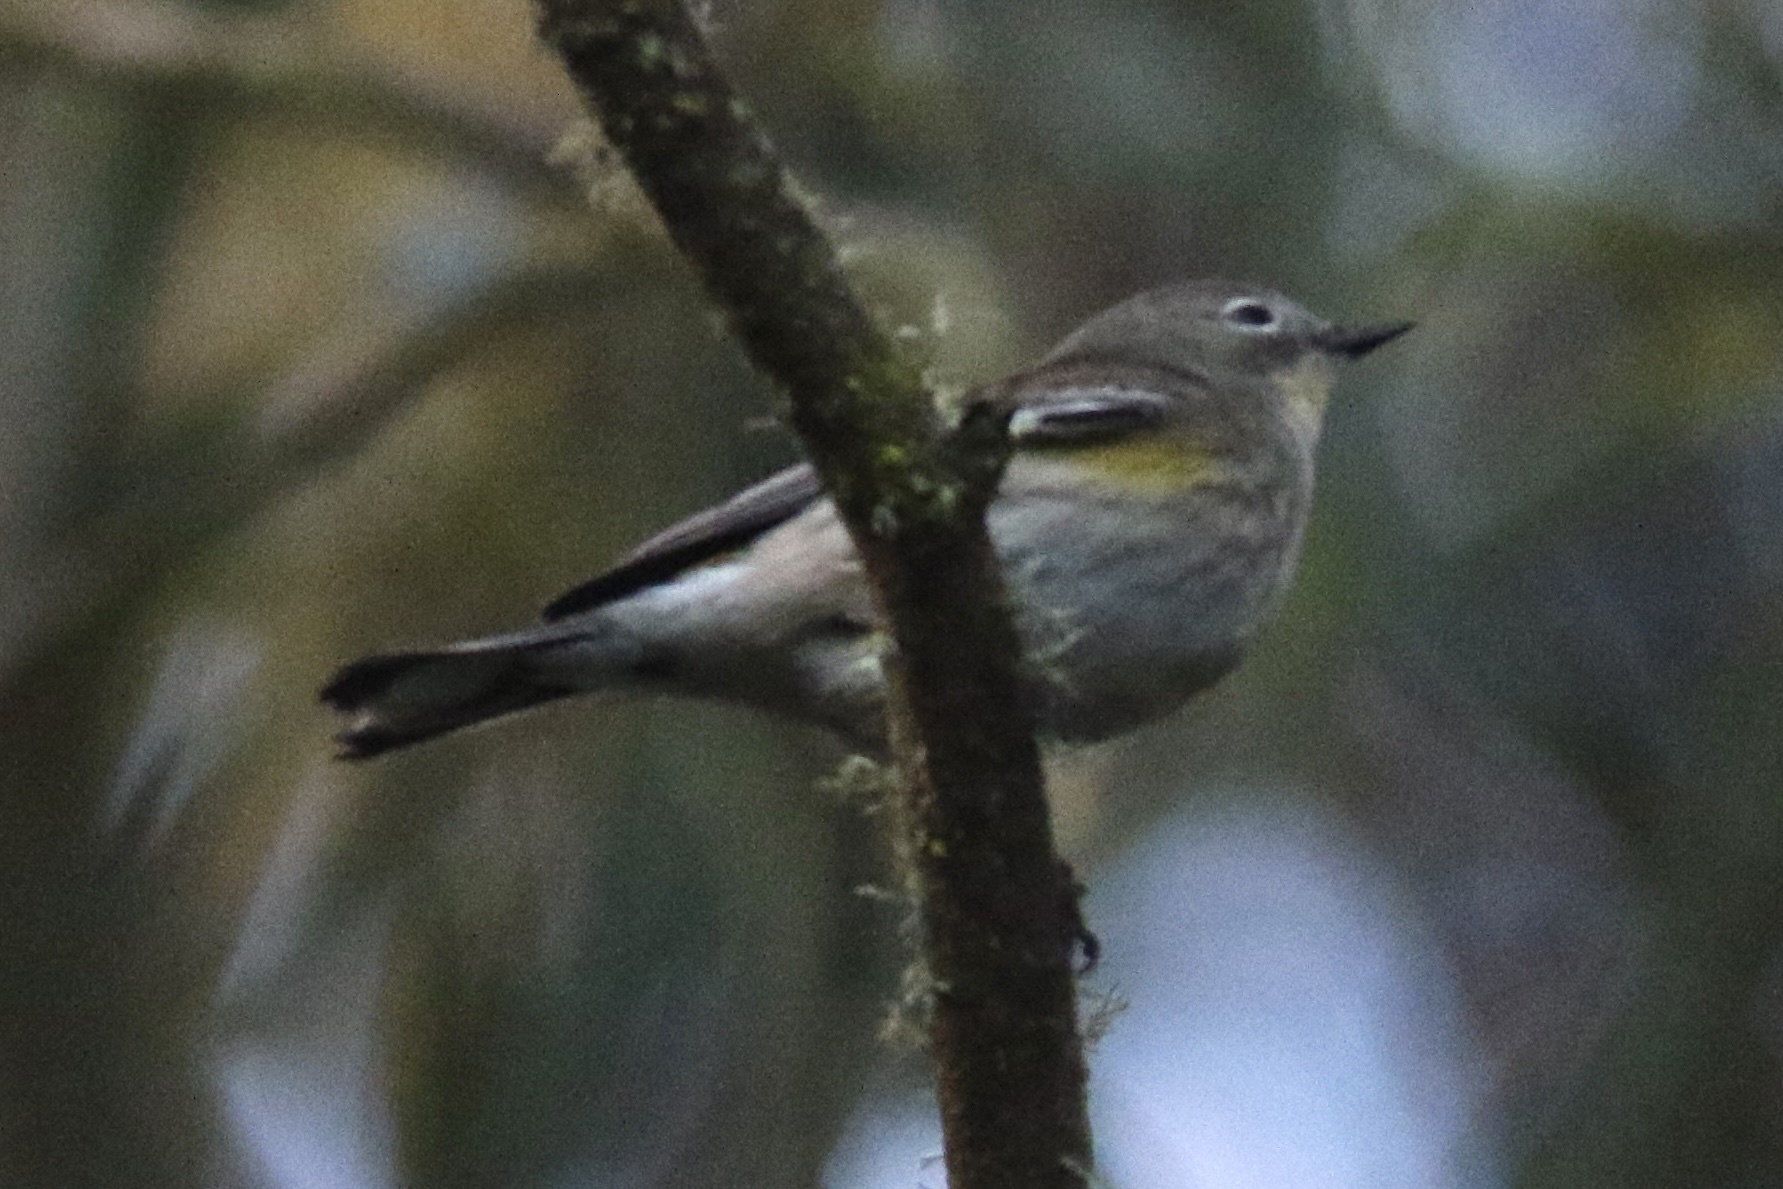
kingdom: Animalia
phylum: Chordata
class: Aves
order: Passeriformes
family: Parulidae
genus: Setophaga
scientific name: Setophaga coronata
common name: Myrtle warbler
